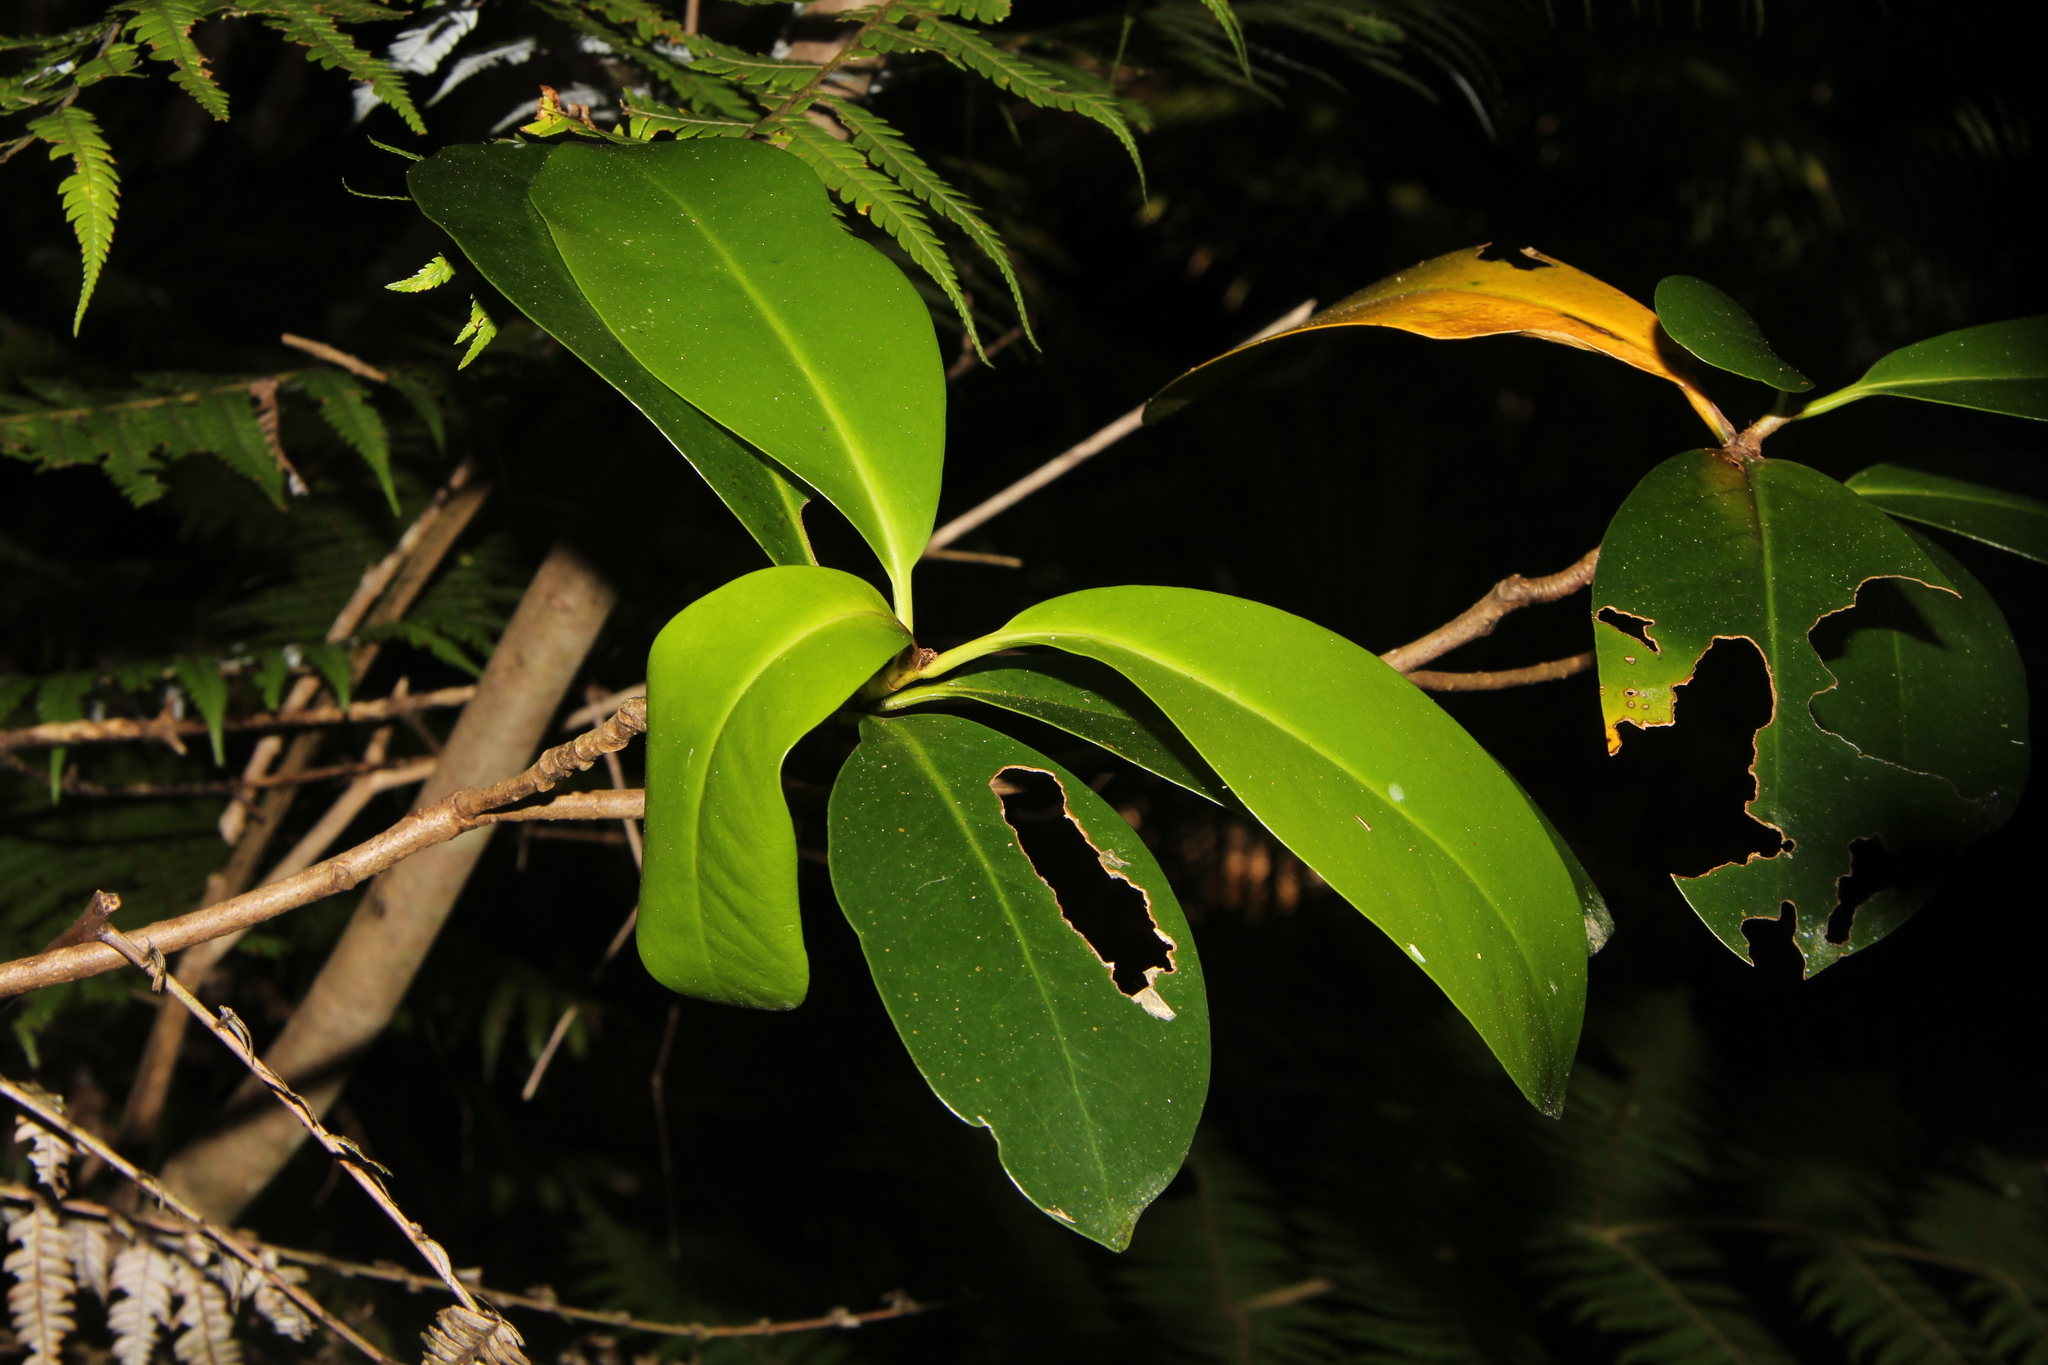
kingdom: Plantae
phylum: Tracheophyta
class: Magnoliopsida
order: Cucurbitales
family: Corynocarpaceae
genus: Corynocarpus
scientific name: Corynocarpus laevigatus
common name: New zealand laurel
